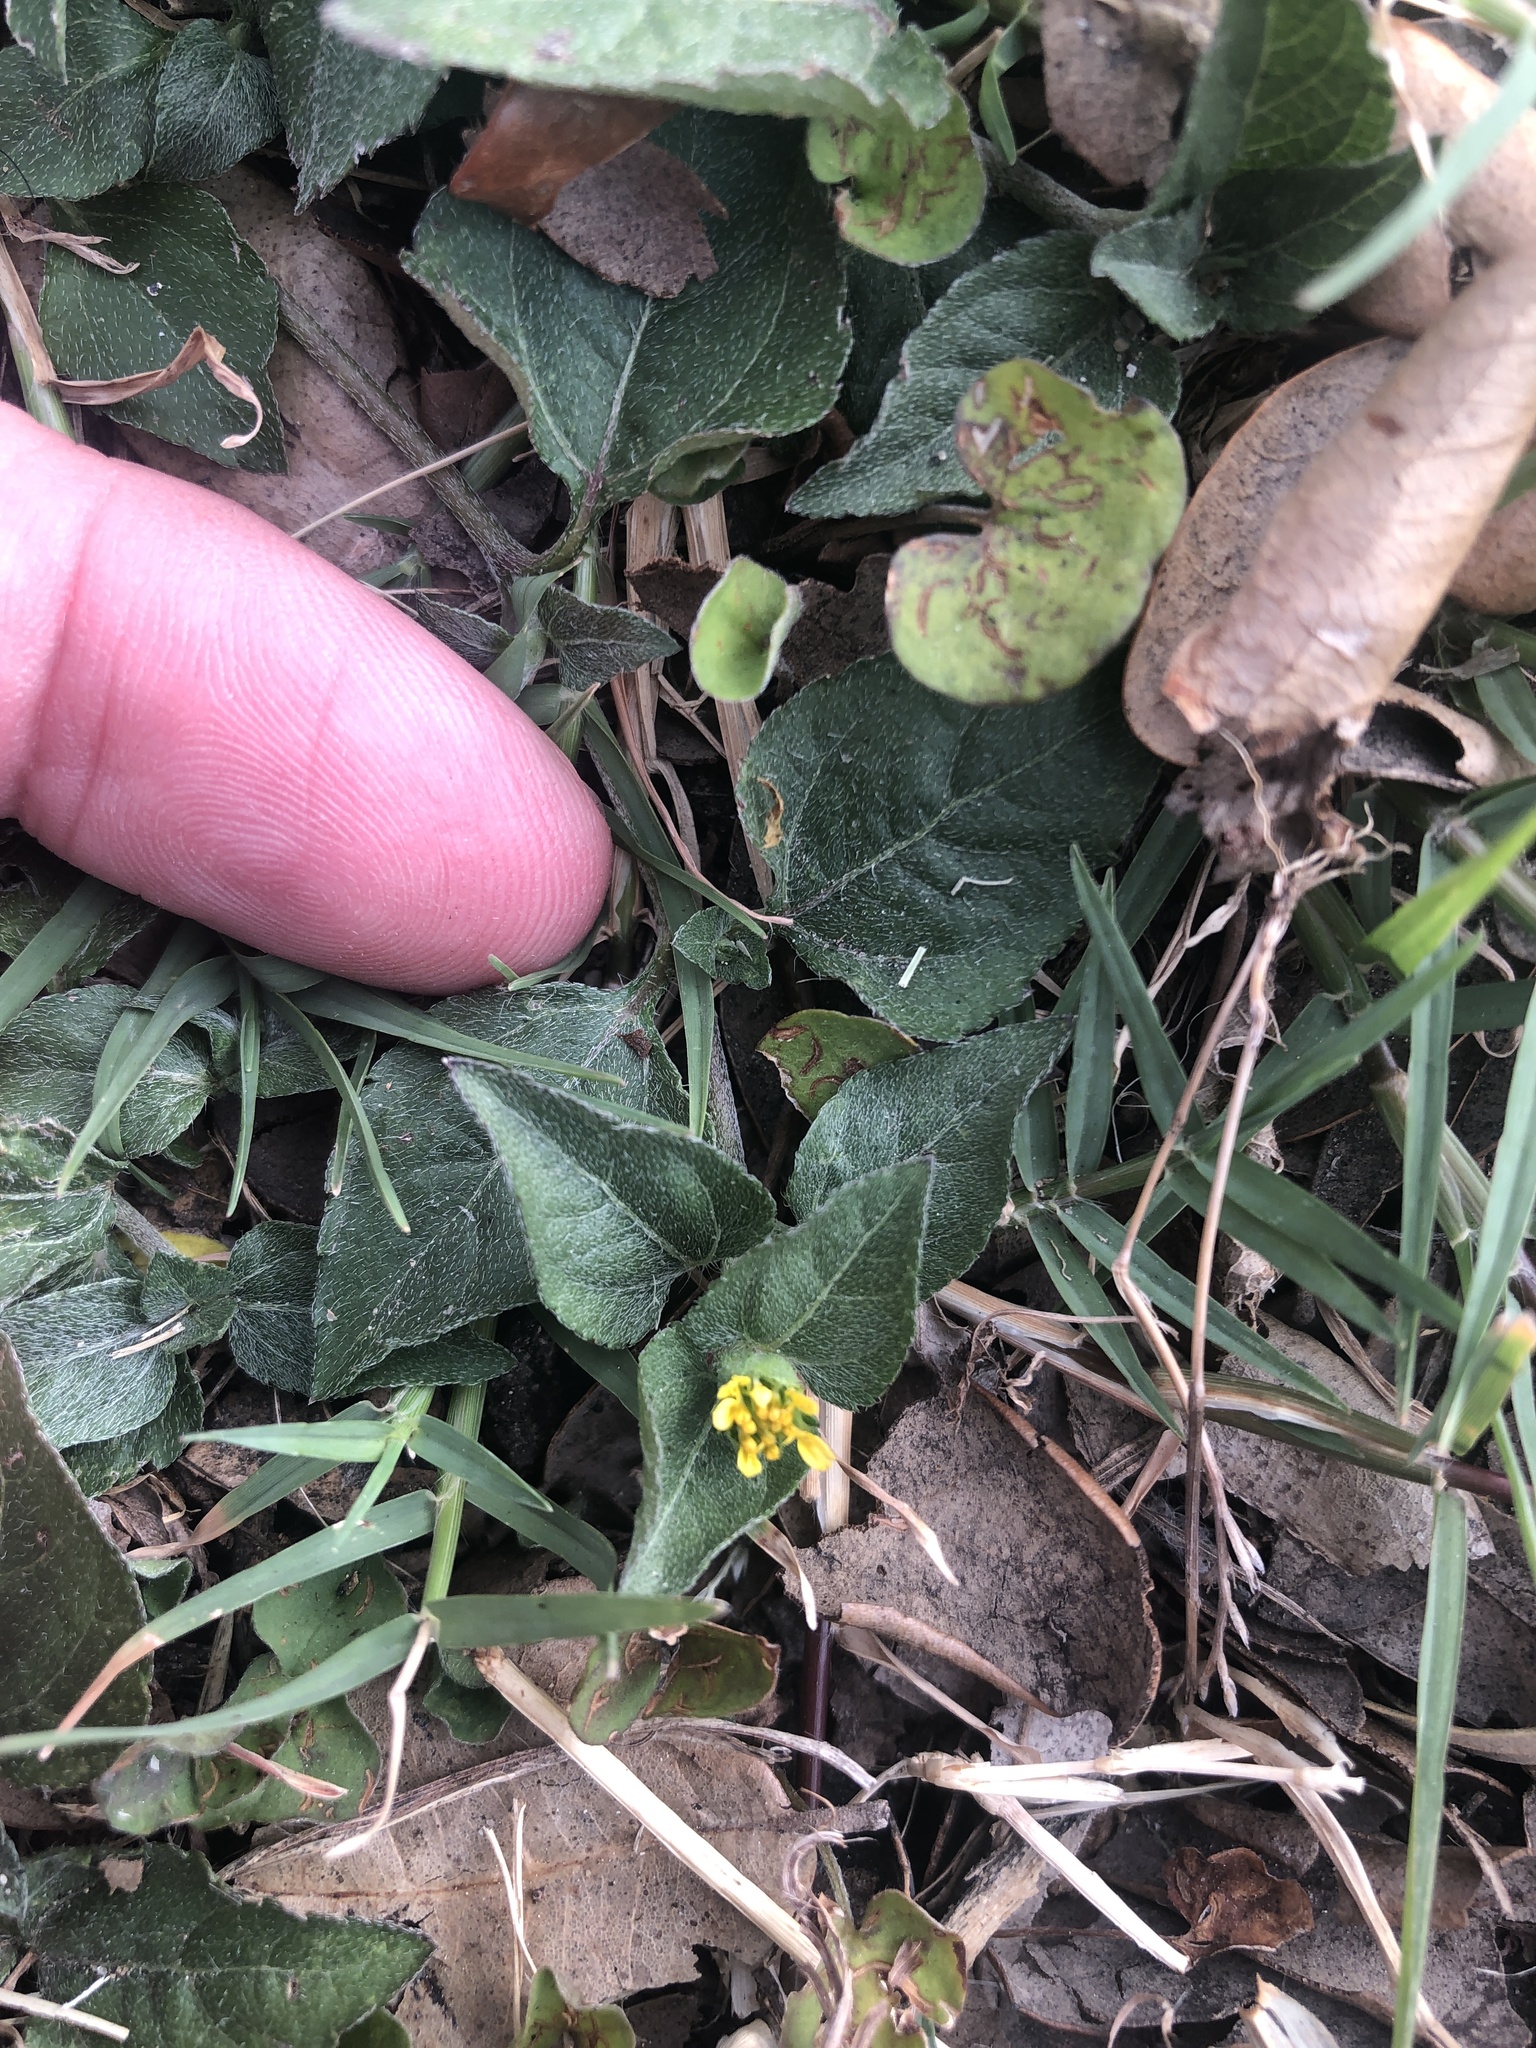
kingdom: Plantae
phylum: Tracheophyta
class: Magnoliopsida
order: Asterales
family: Asteraceae
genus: Calyptocarpus
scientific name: Calyptocarpus vialis
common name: Straggler daisy
